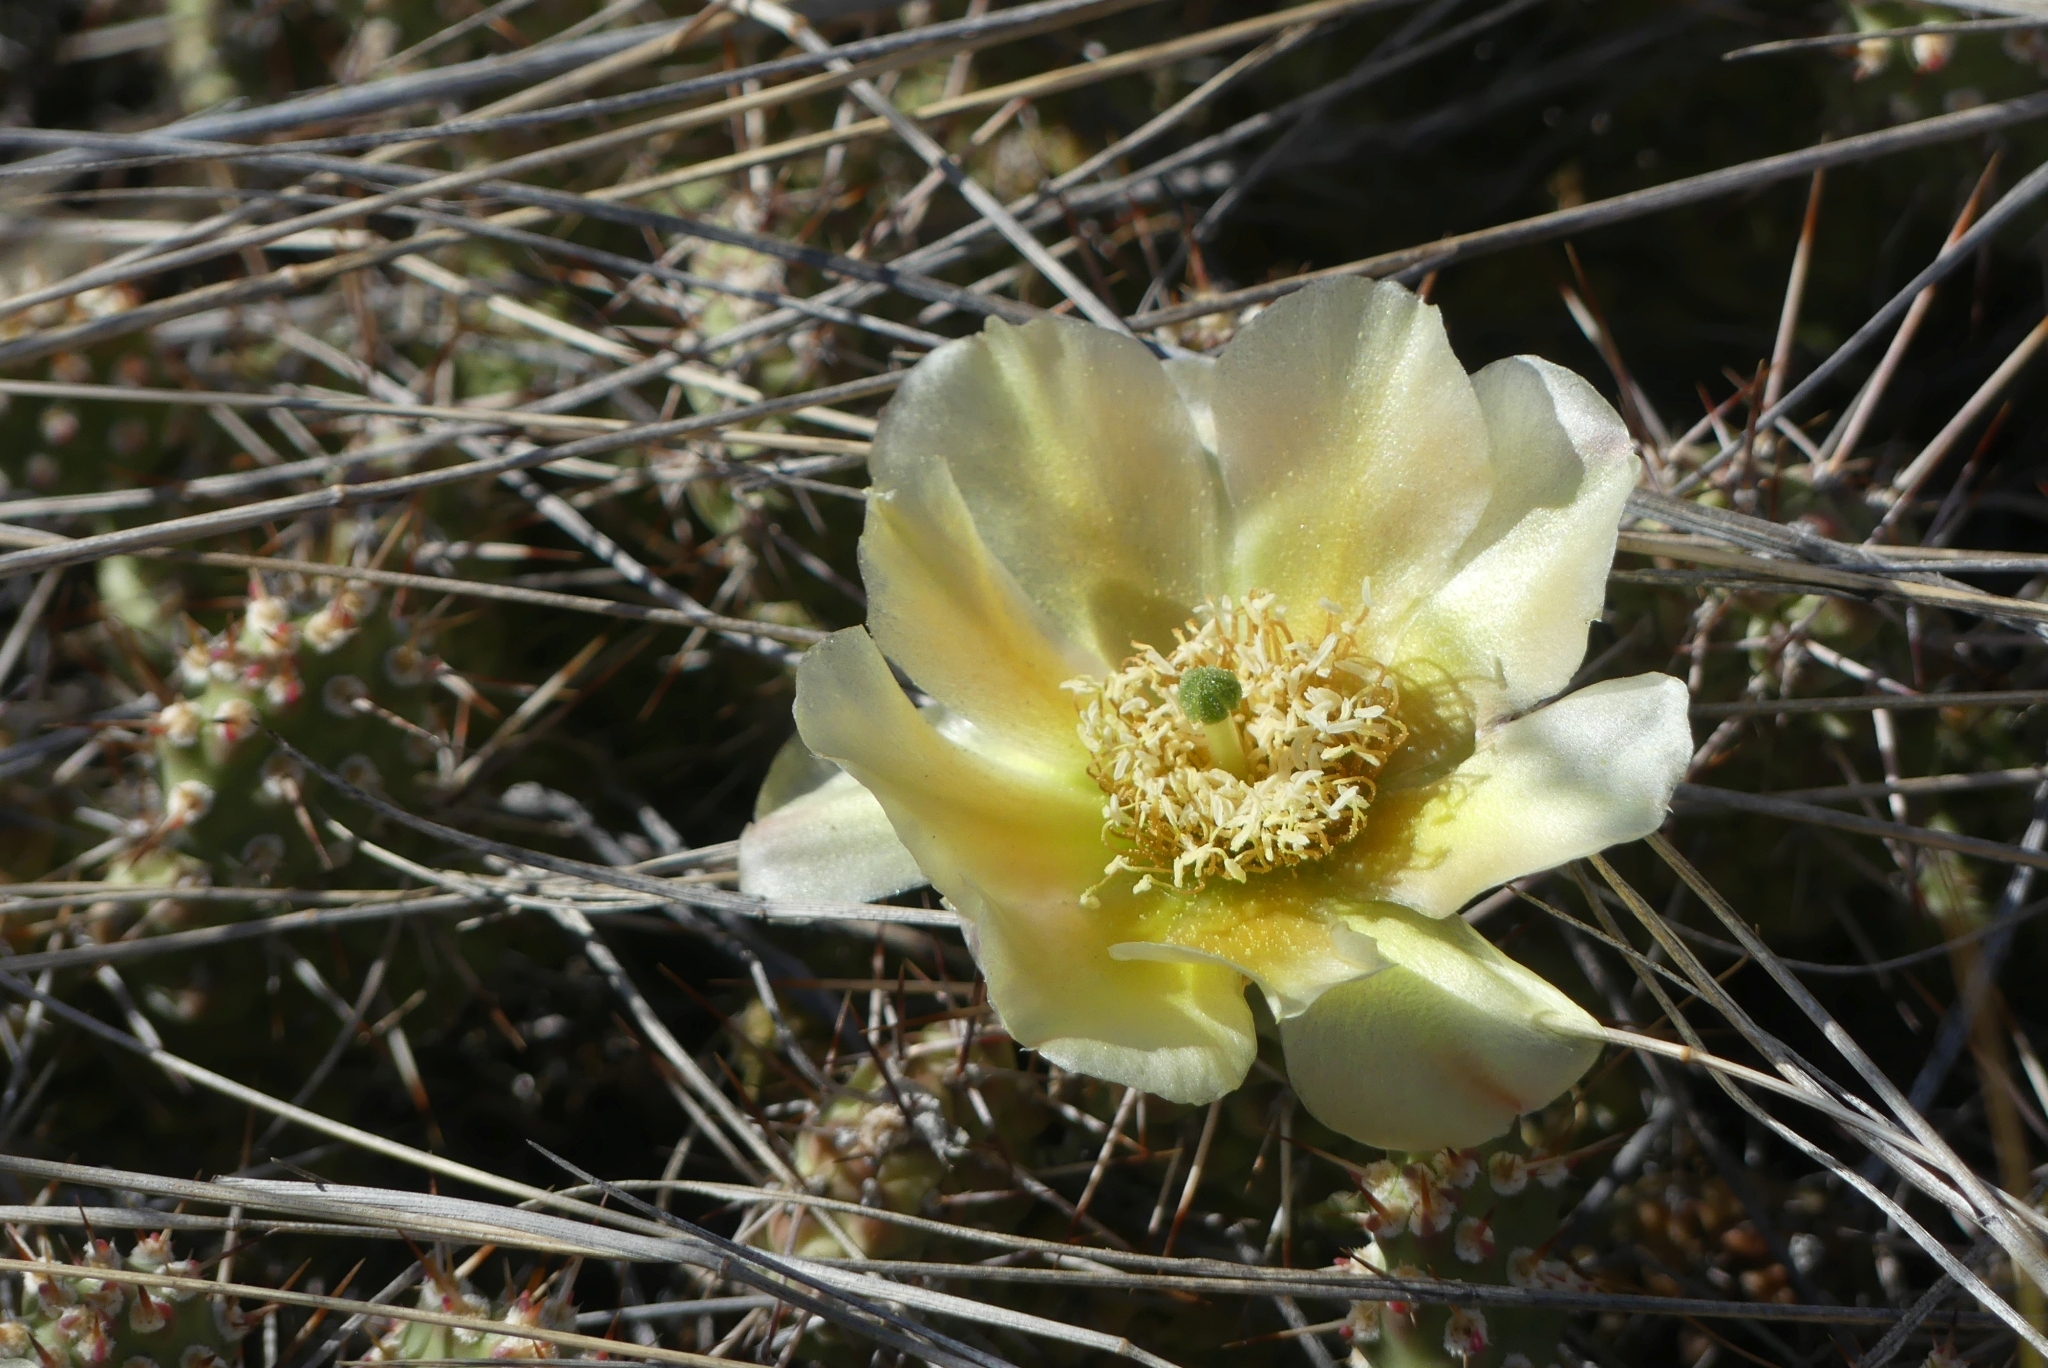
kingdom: Plantae
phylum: Tracheophyta
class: Magnoliopsida
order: Caryophyllales
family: Cactaceae
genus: Opuntia
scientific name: Opuntia fragilis
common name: Brittle cactus
